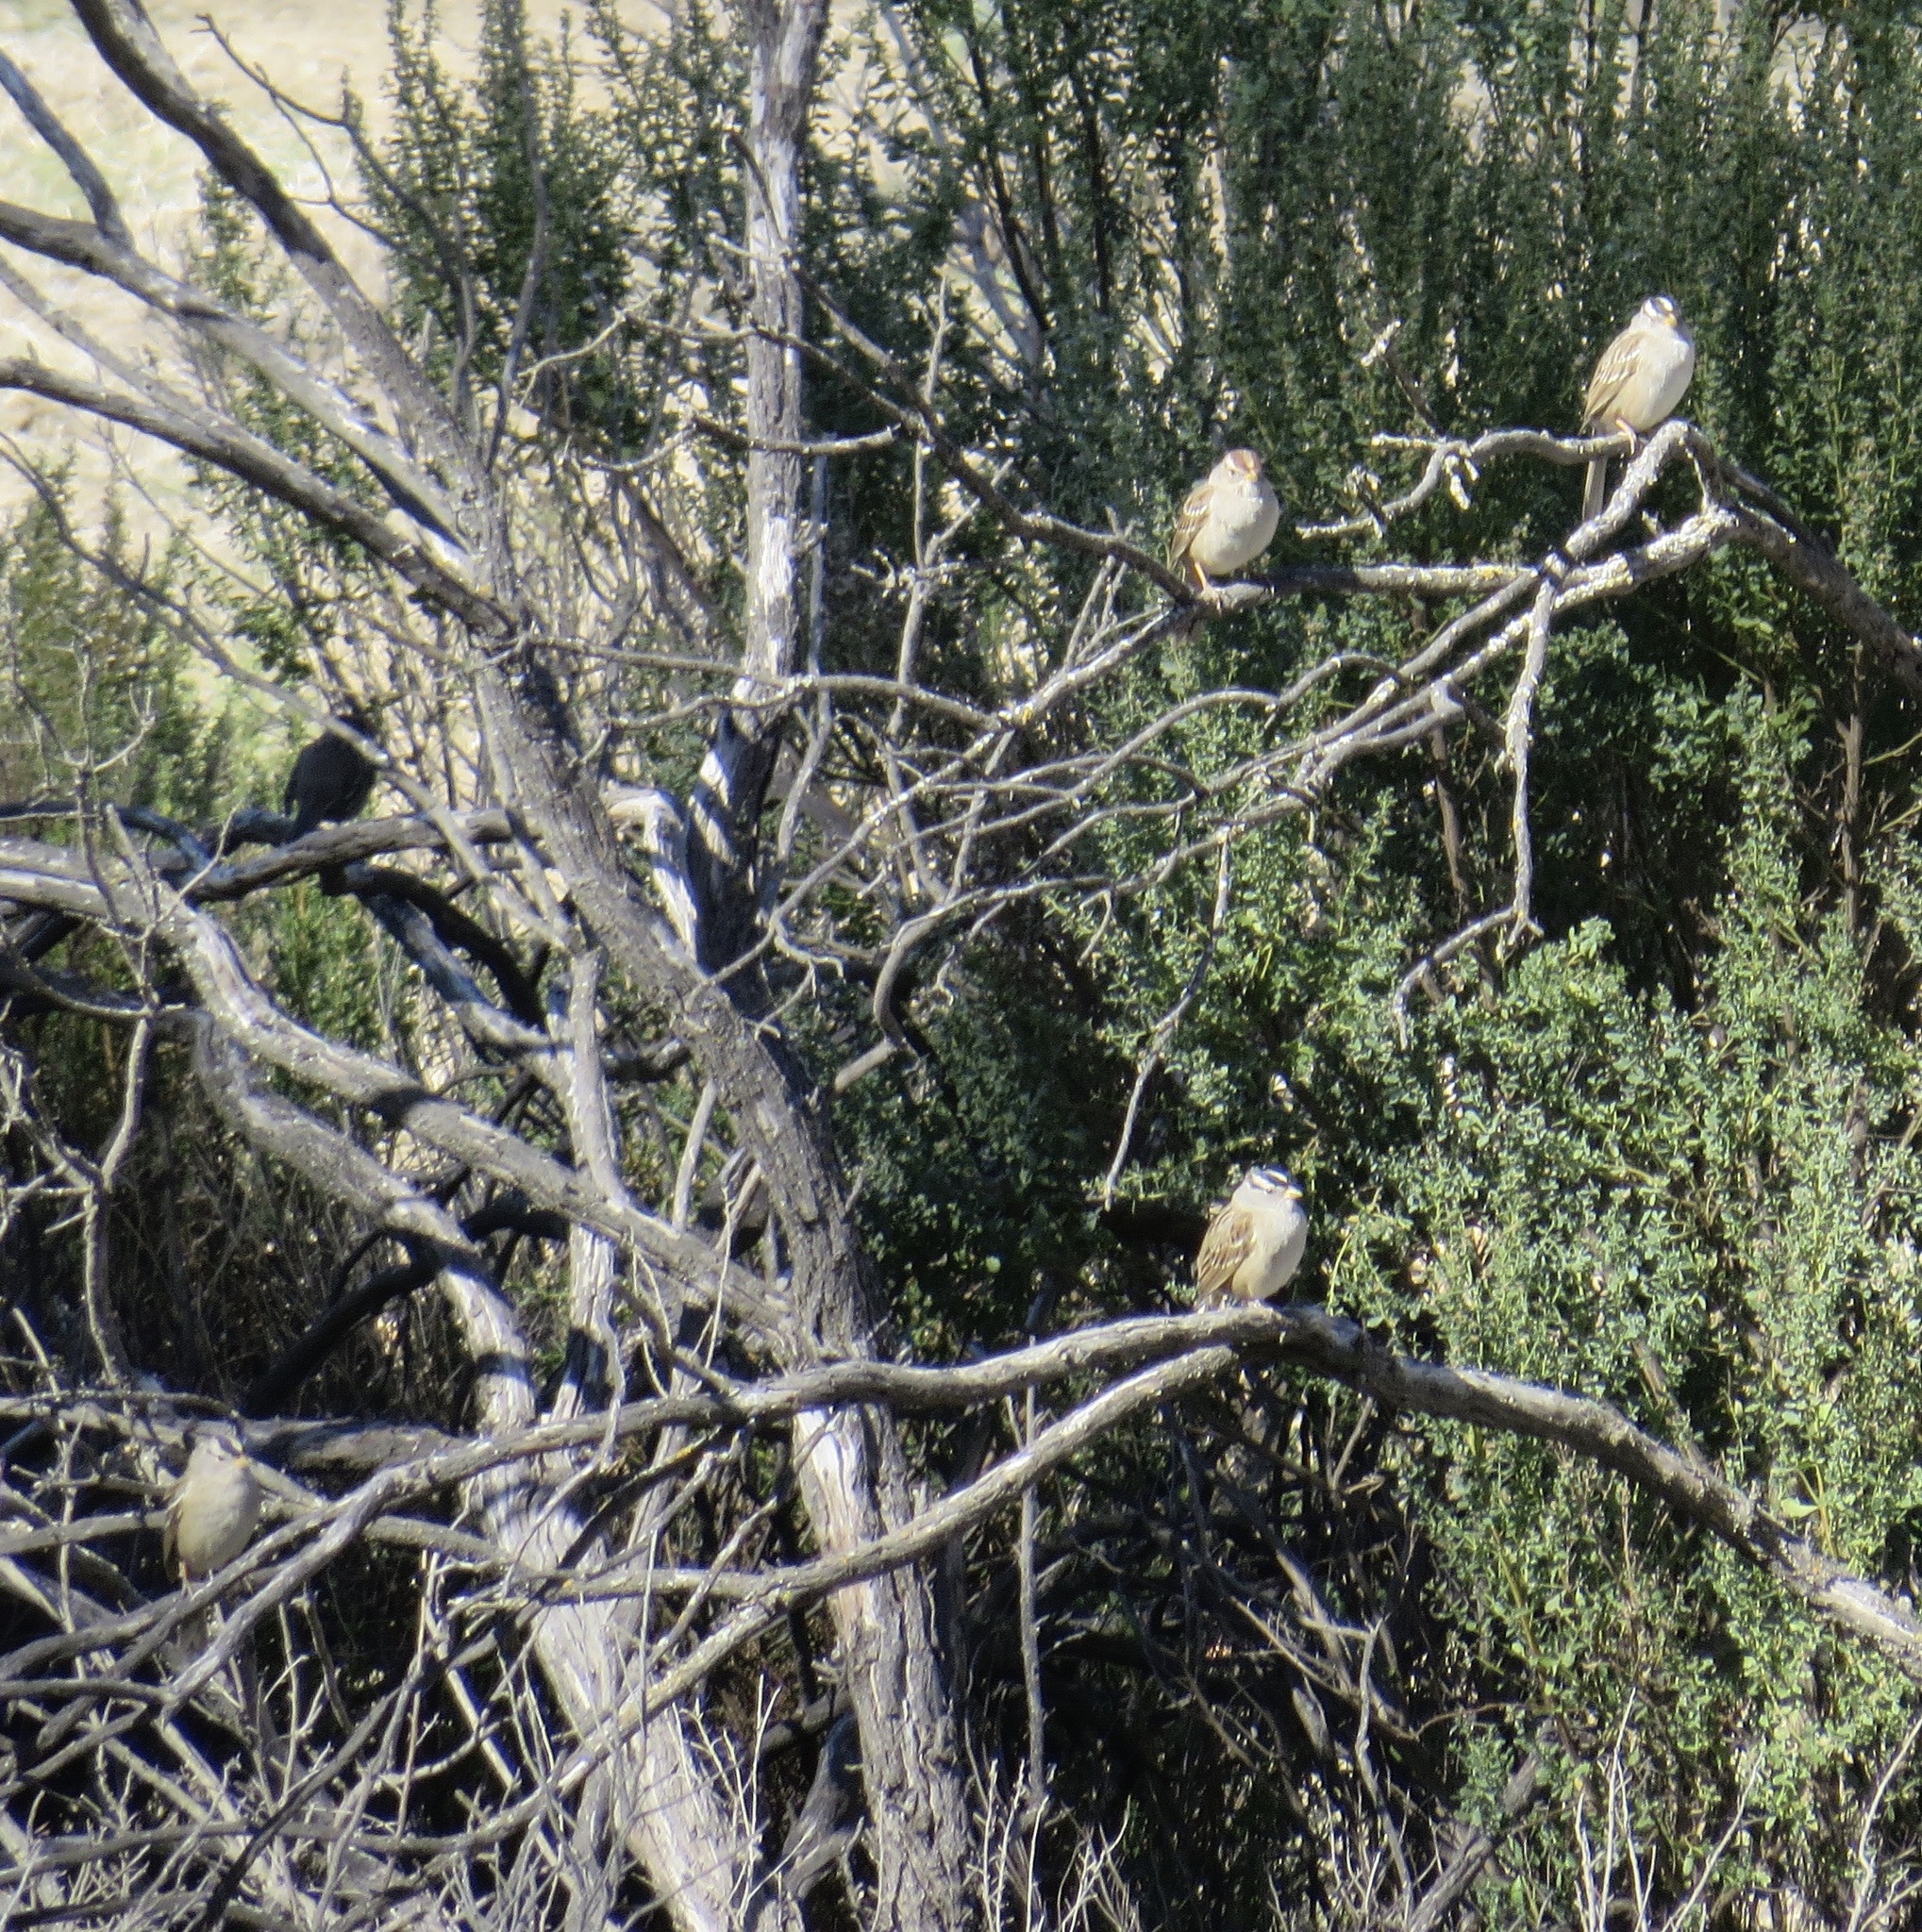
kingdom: Animalia
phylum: Chordata
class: Aves
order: Passeriformes
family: Passerellidae
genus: Zonotrichia
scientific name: Zonotrichia leucophrys
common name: White-crowned sparrow
